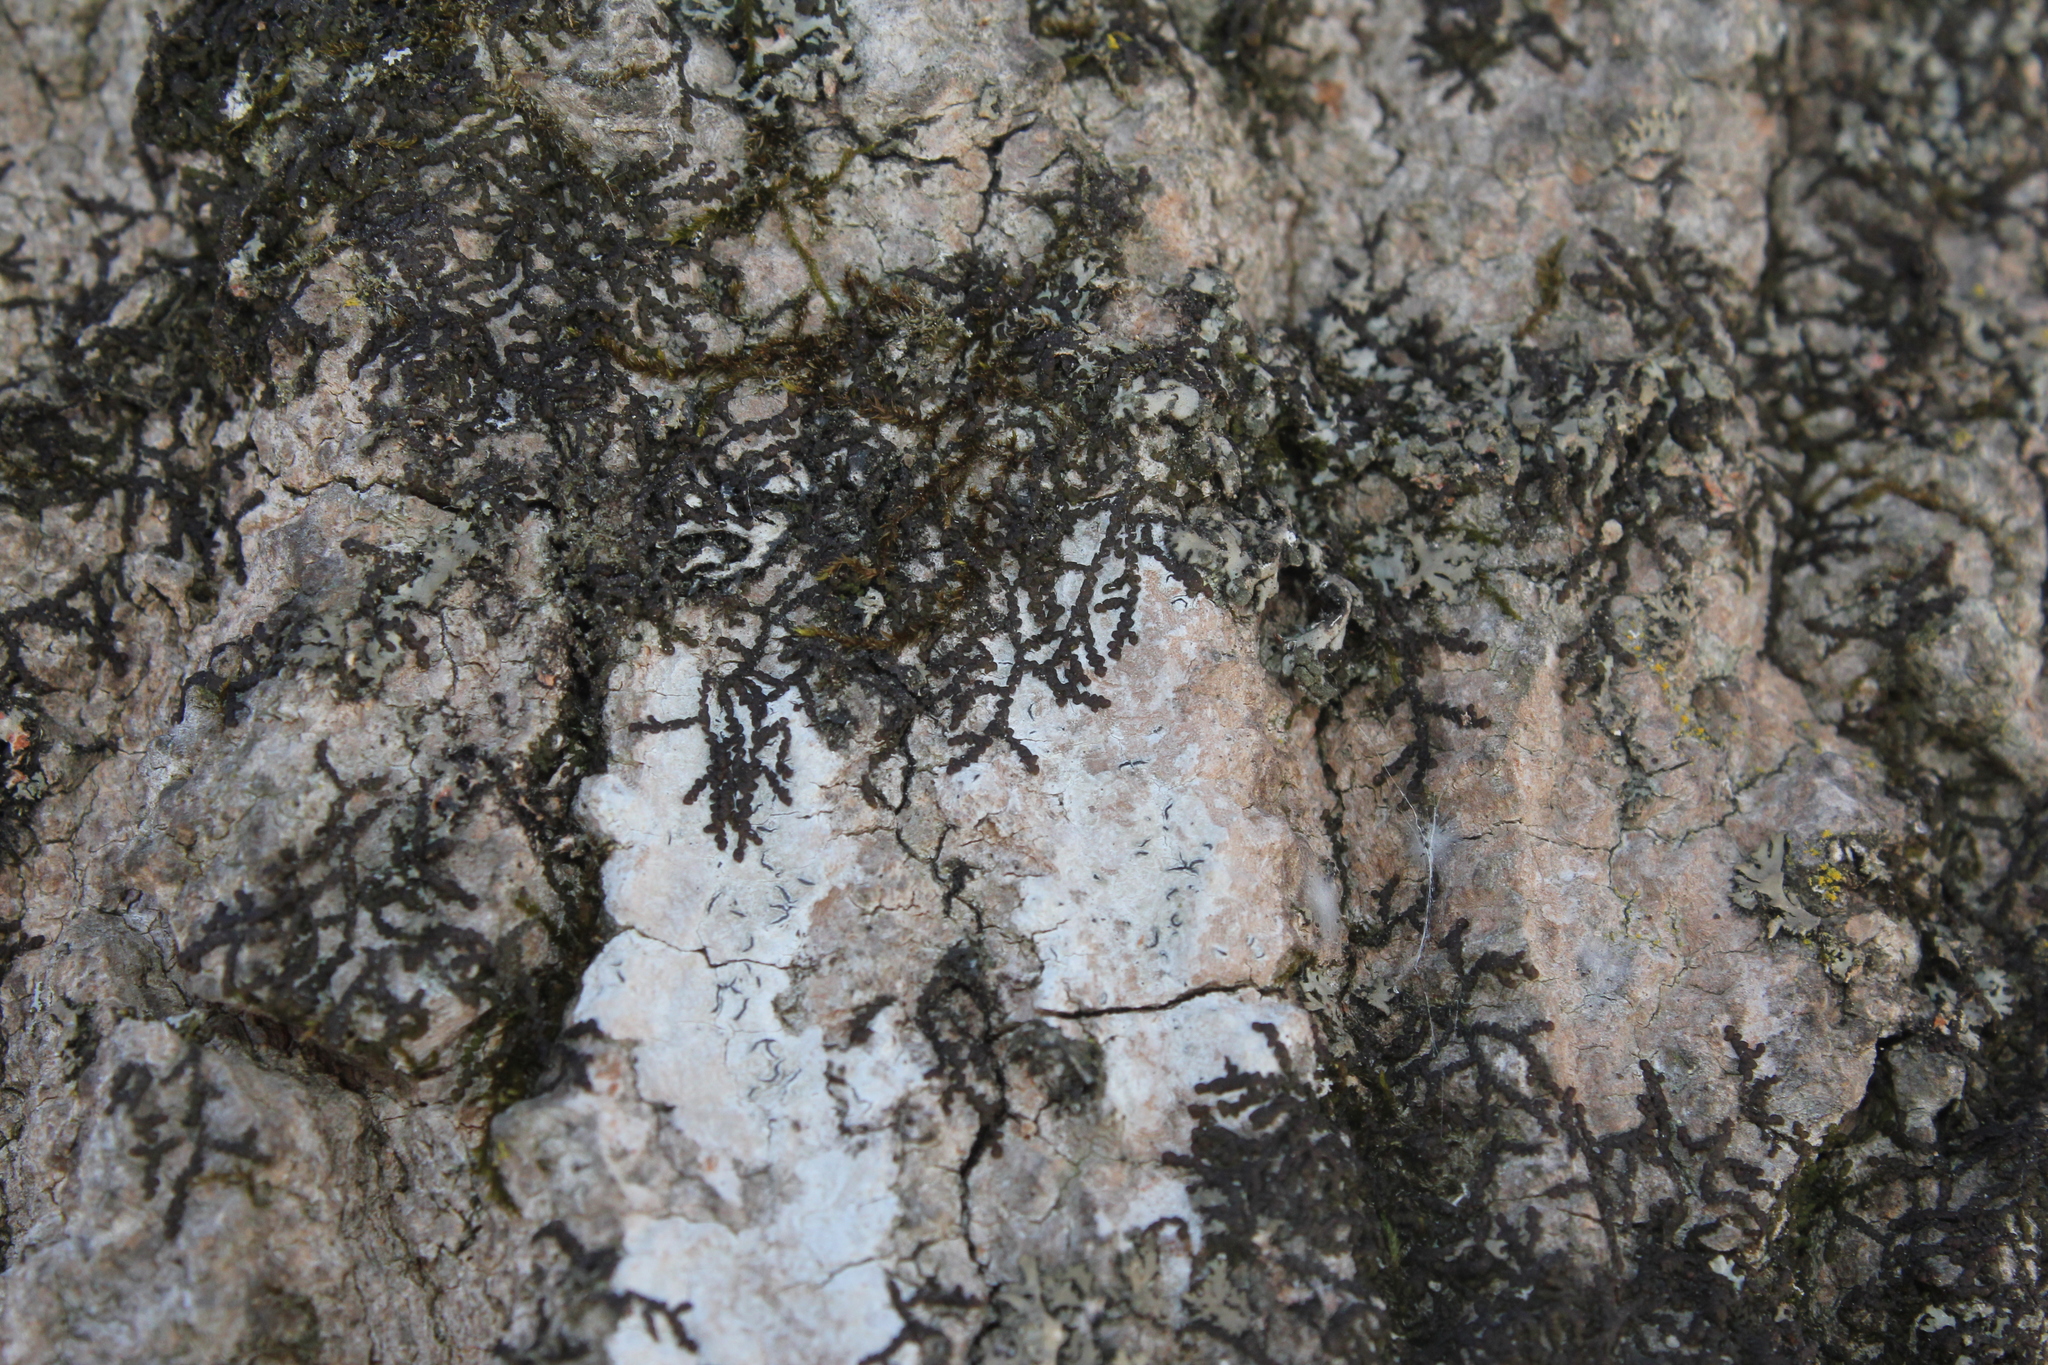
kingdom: Plantae
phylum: Marchantiophyta
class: Jungermanniopsida
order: Porellales
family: Frullaniaceae
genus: Frullania
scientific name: Frullania eboracensis
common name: New york scalewort
